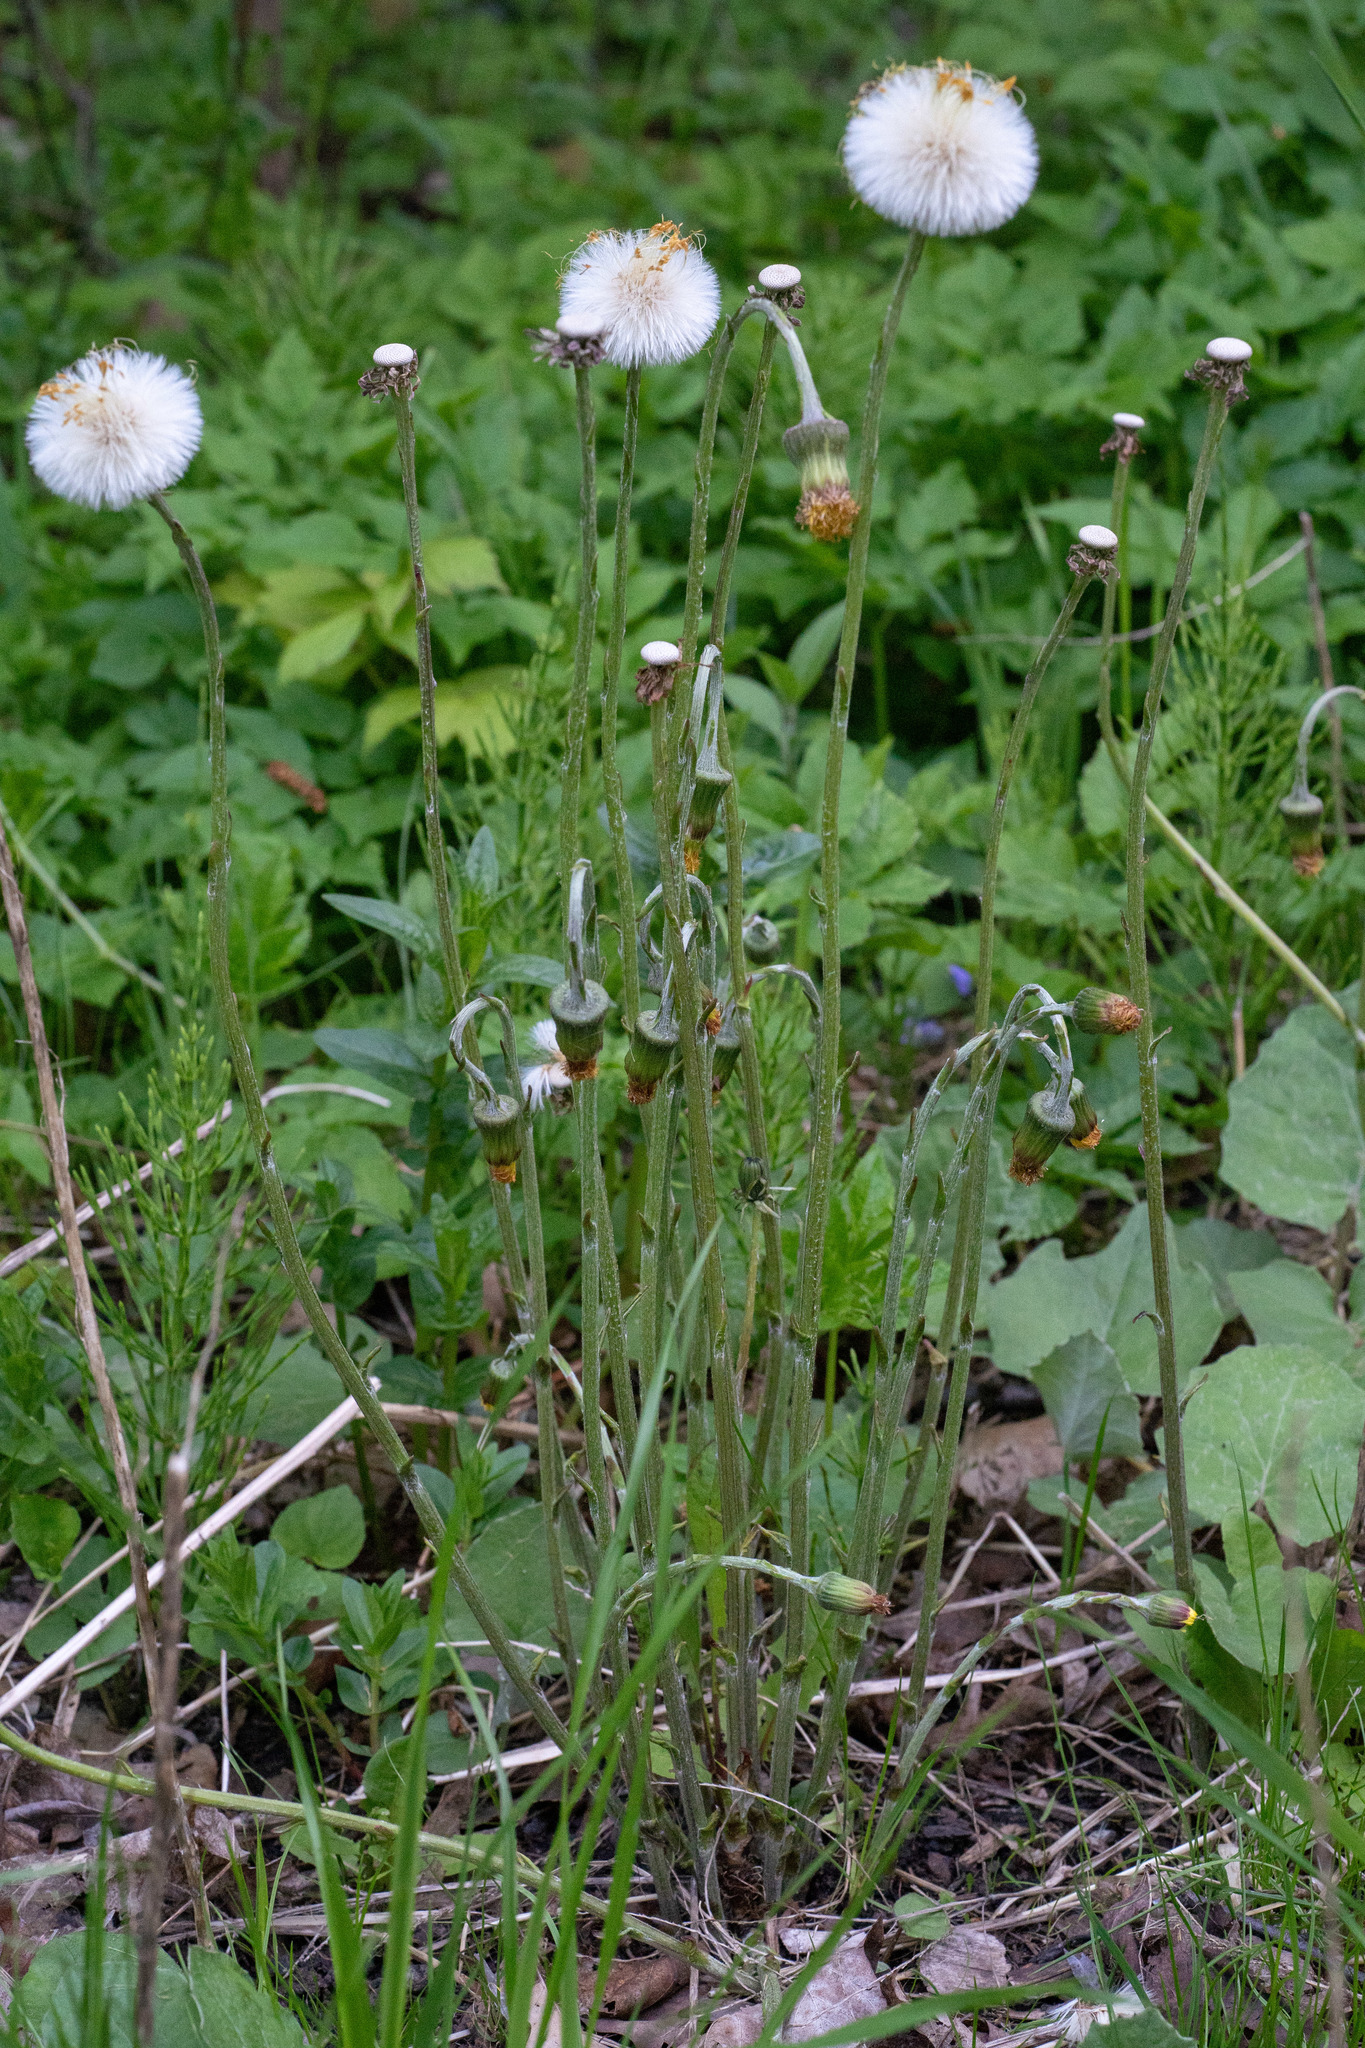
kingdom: Plantae
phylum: Tracheophyta
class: Magnoliopsida
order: Asterales
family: Asteraceae
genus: Tussilago
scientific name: Tussilago farfara
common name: Coltsfoot
